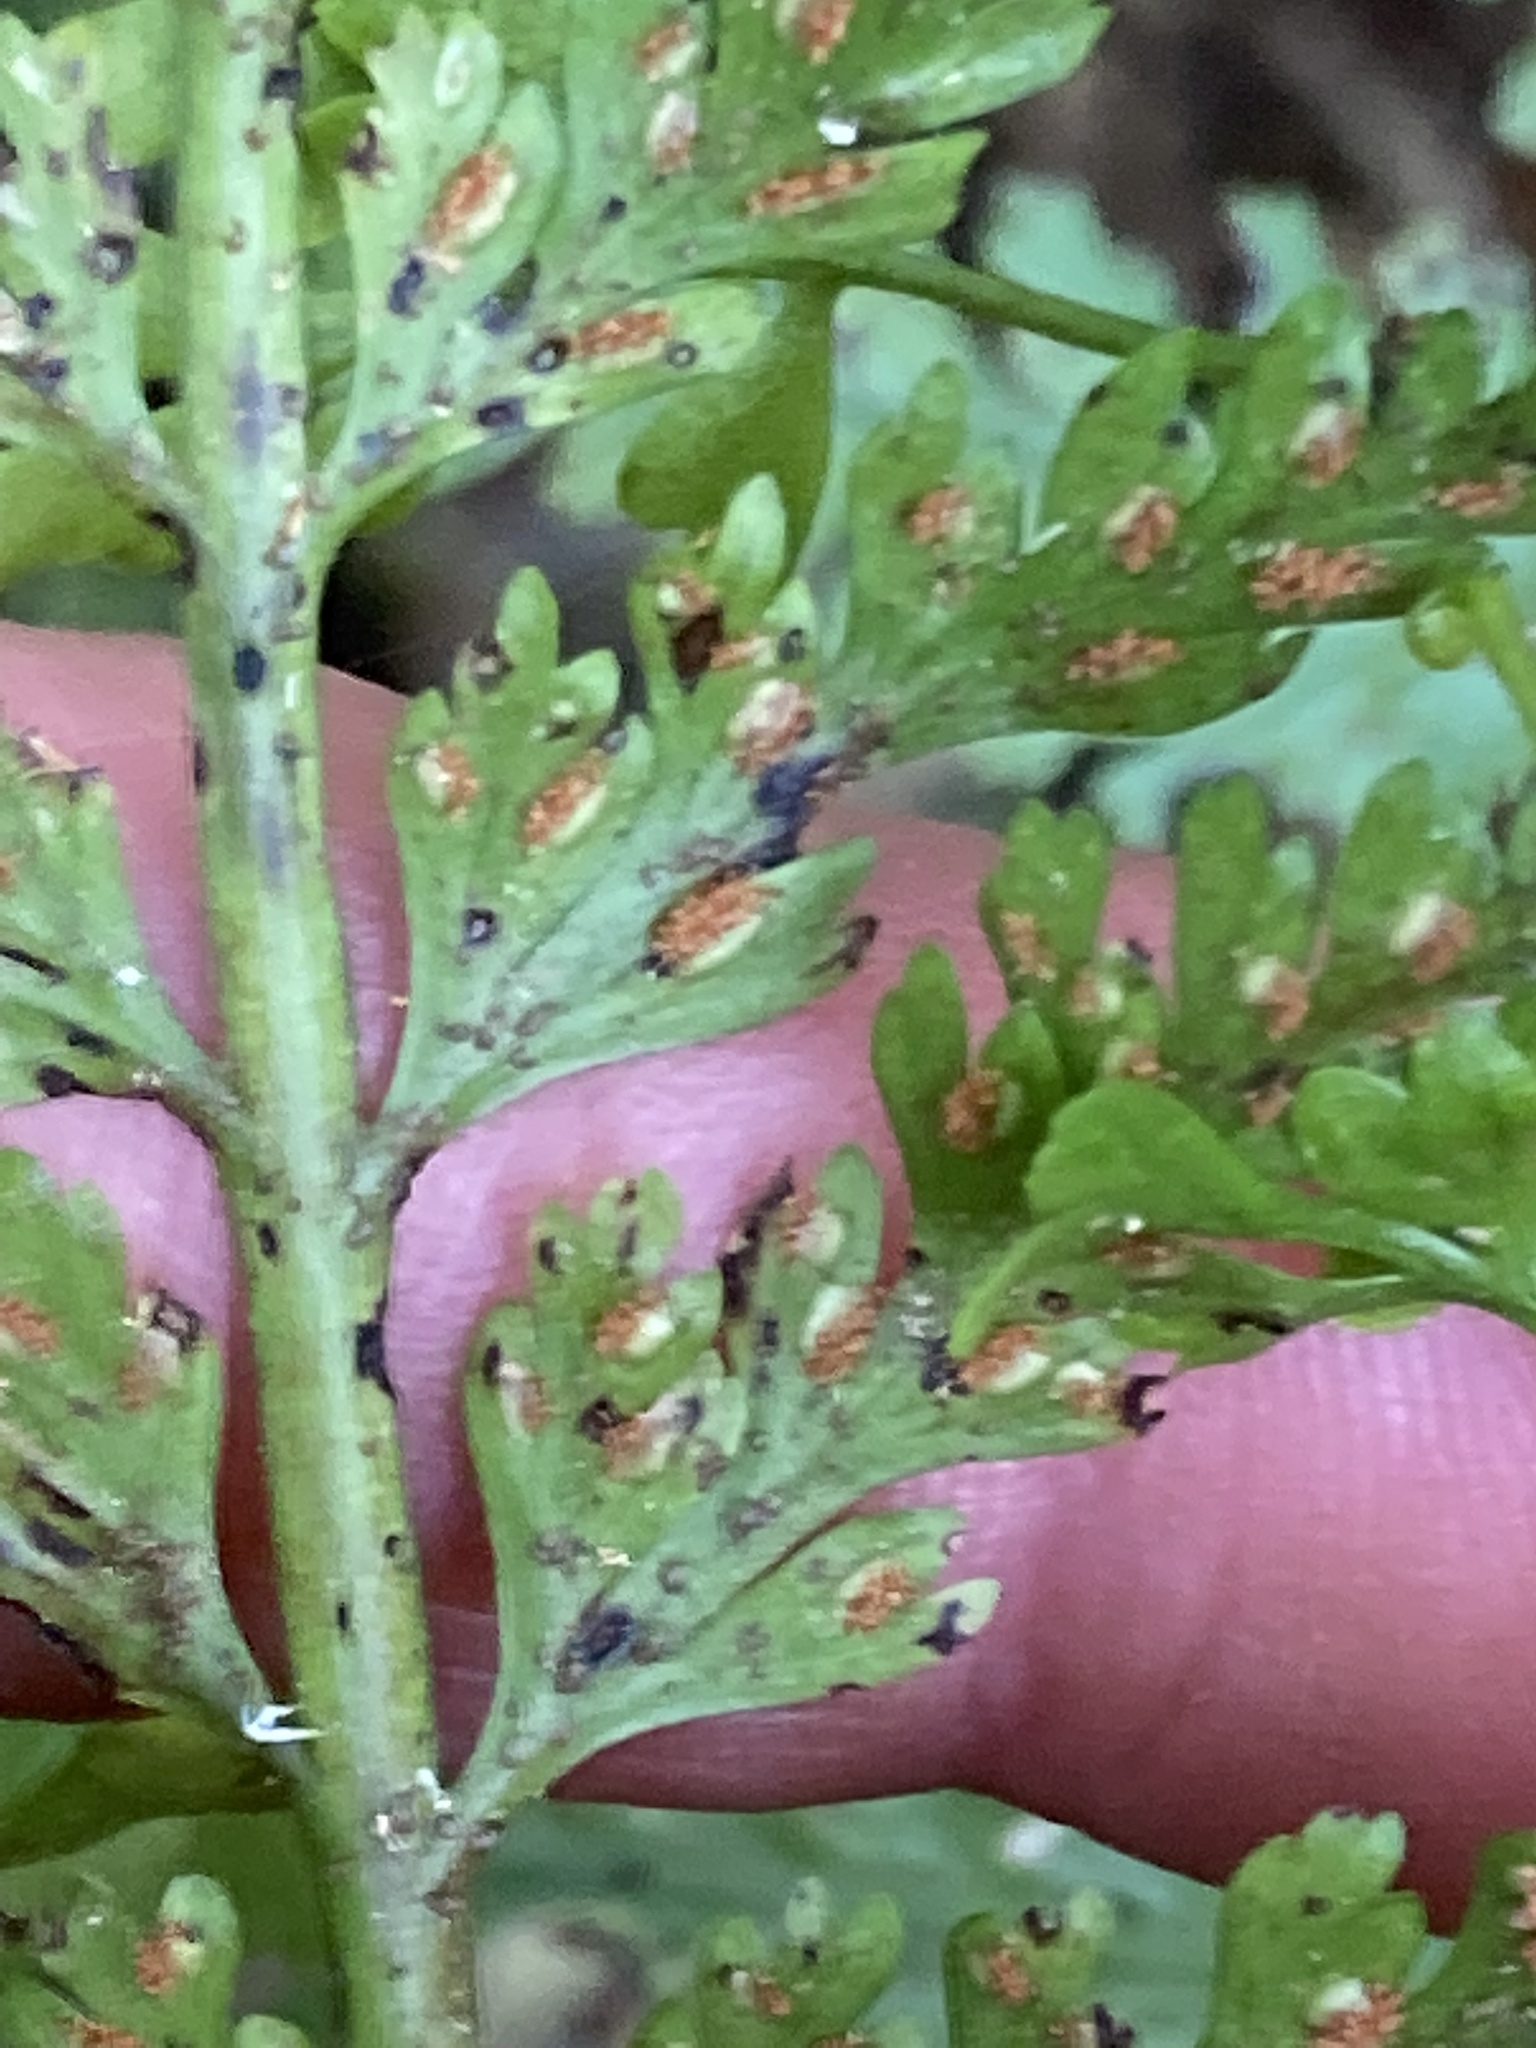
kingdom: Plantae
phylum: Tracheophyta
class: Polypodiopsida
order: Polypodiales
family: Aspleniaceae
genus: Asplenium
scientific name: Asplenium bulbiferum
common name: Mother fern
